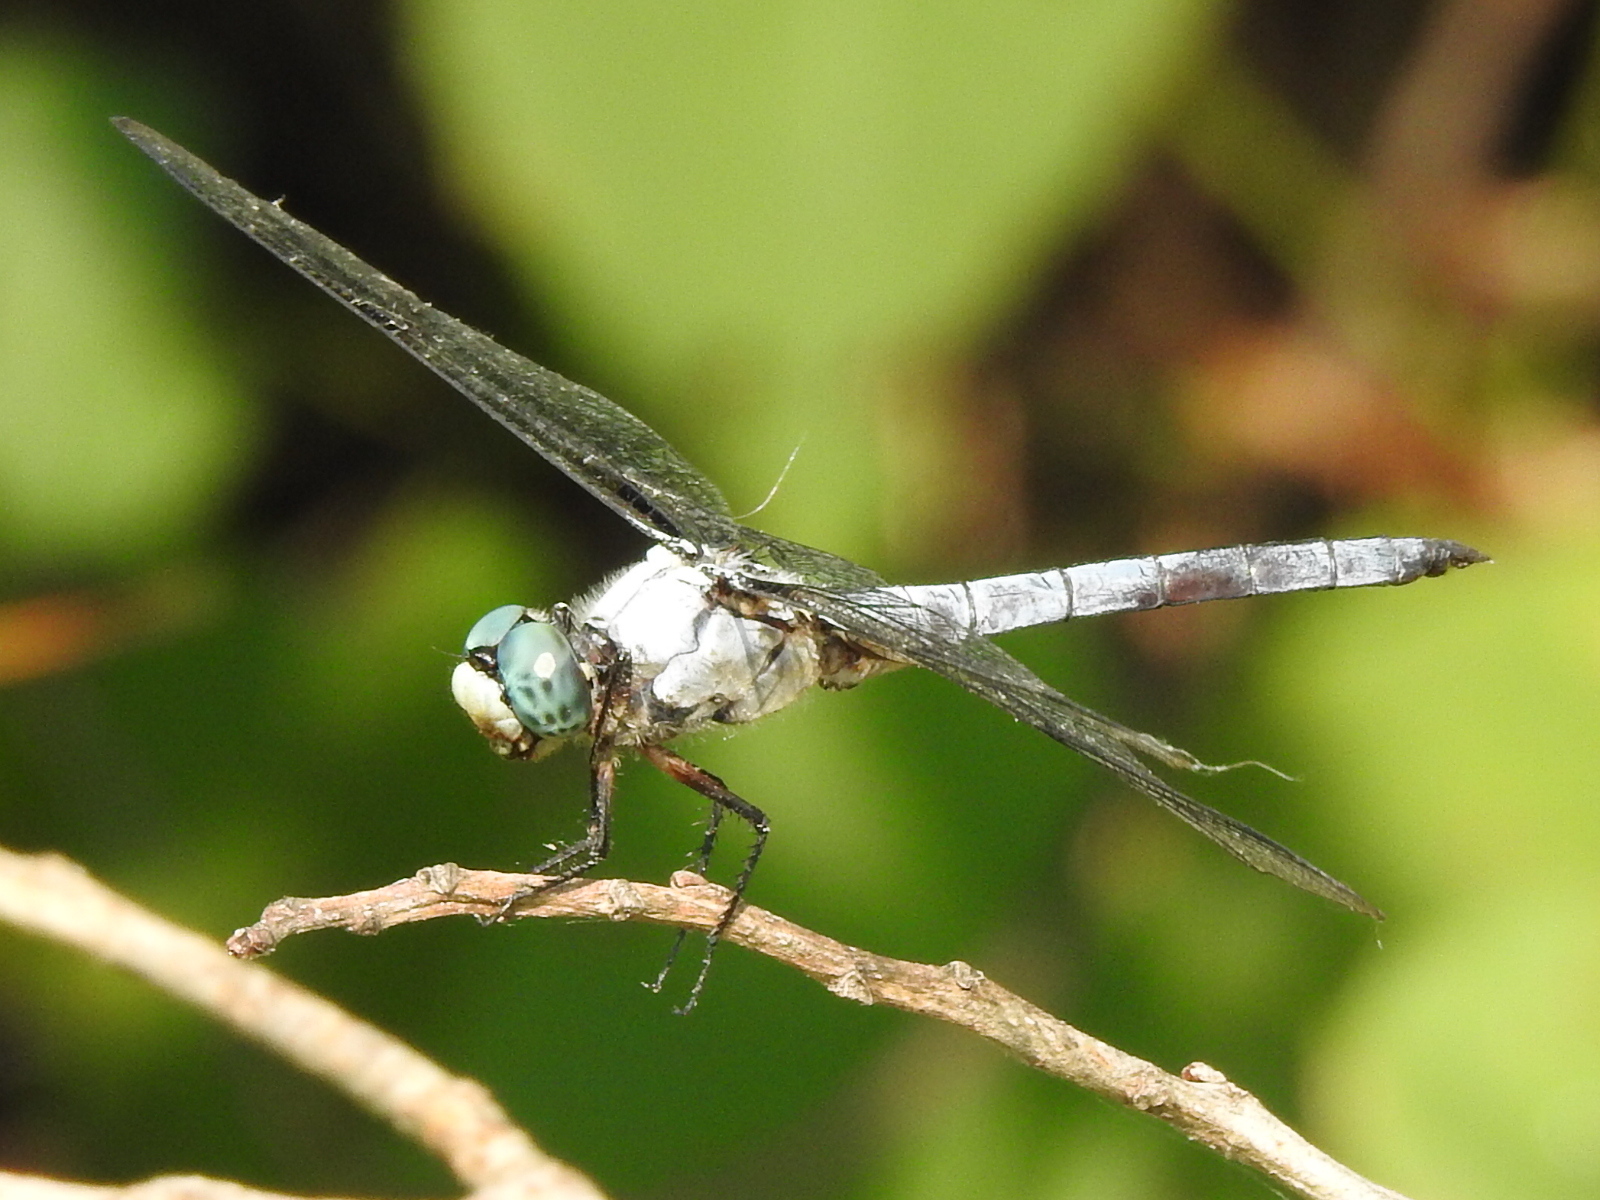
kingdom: Animalia
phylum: Arthropoda
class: Insecta
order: Odonata
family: Libellulidae
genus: Libellula
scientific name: Libellula vibrans
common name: Great blue skimmer
